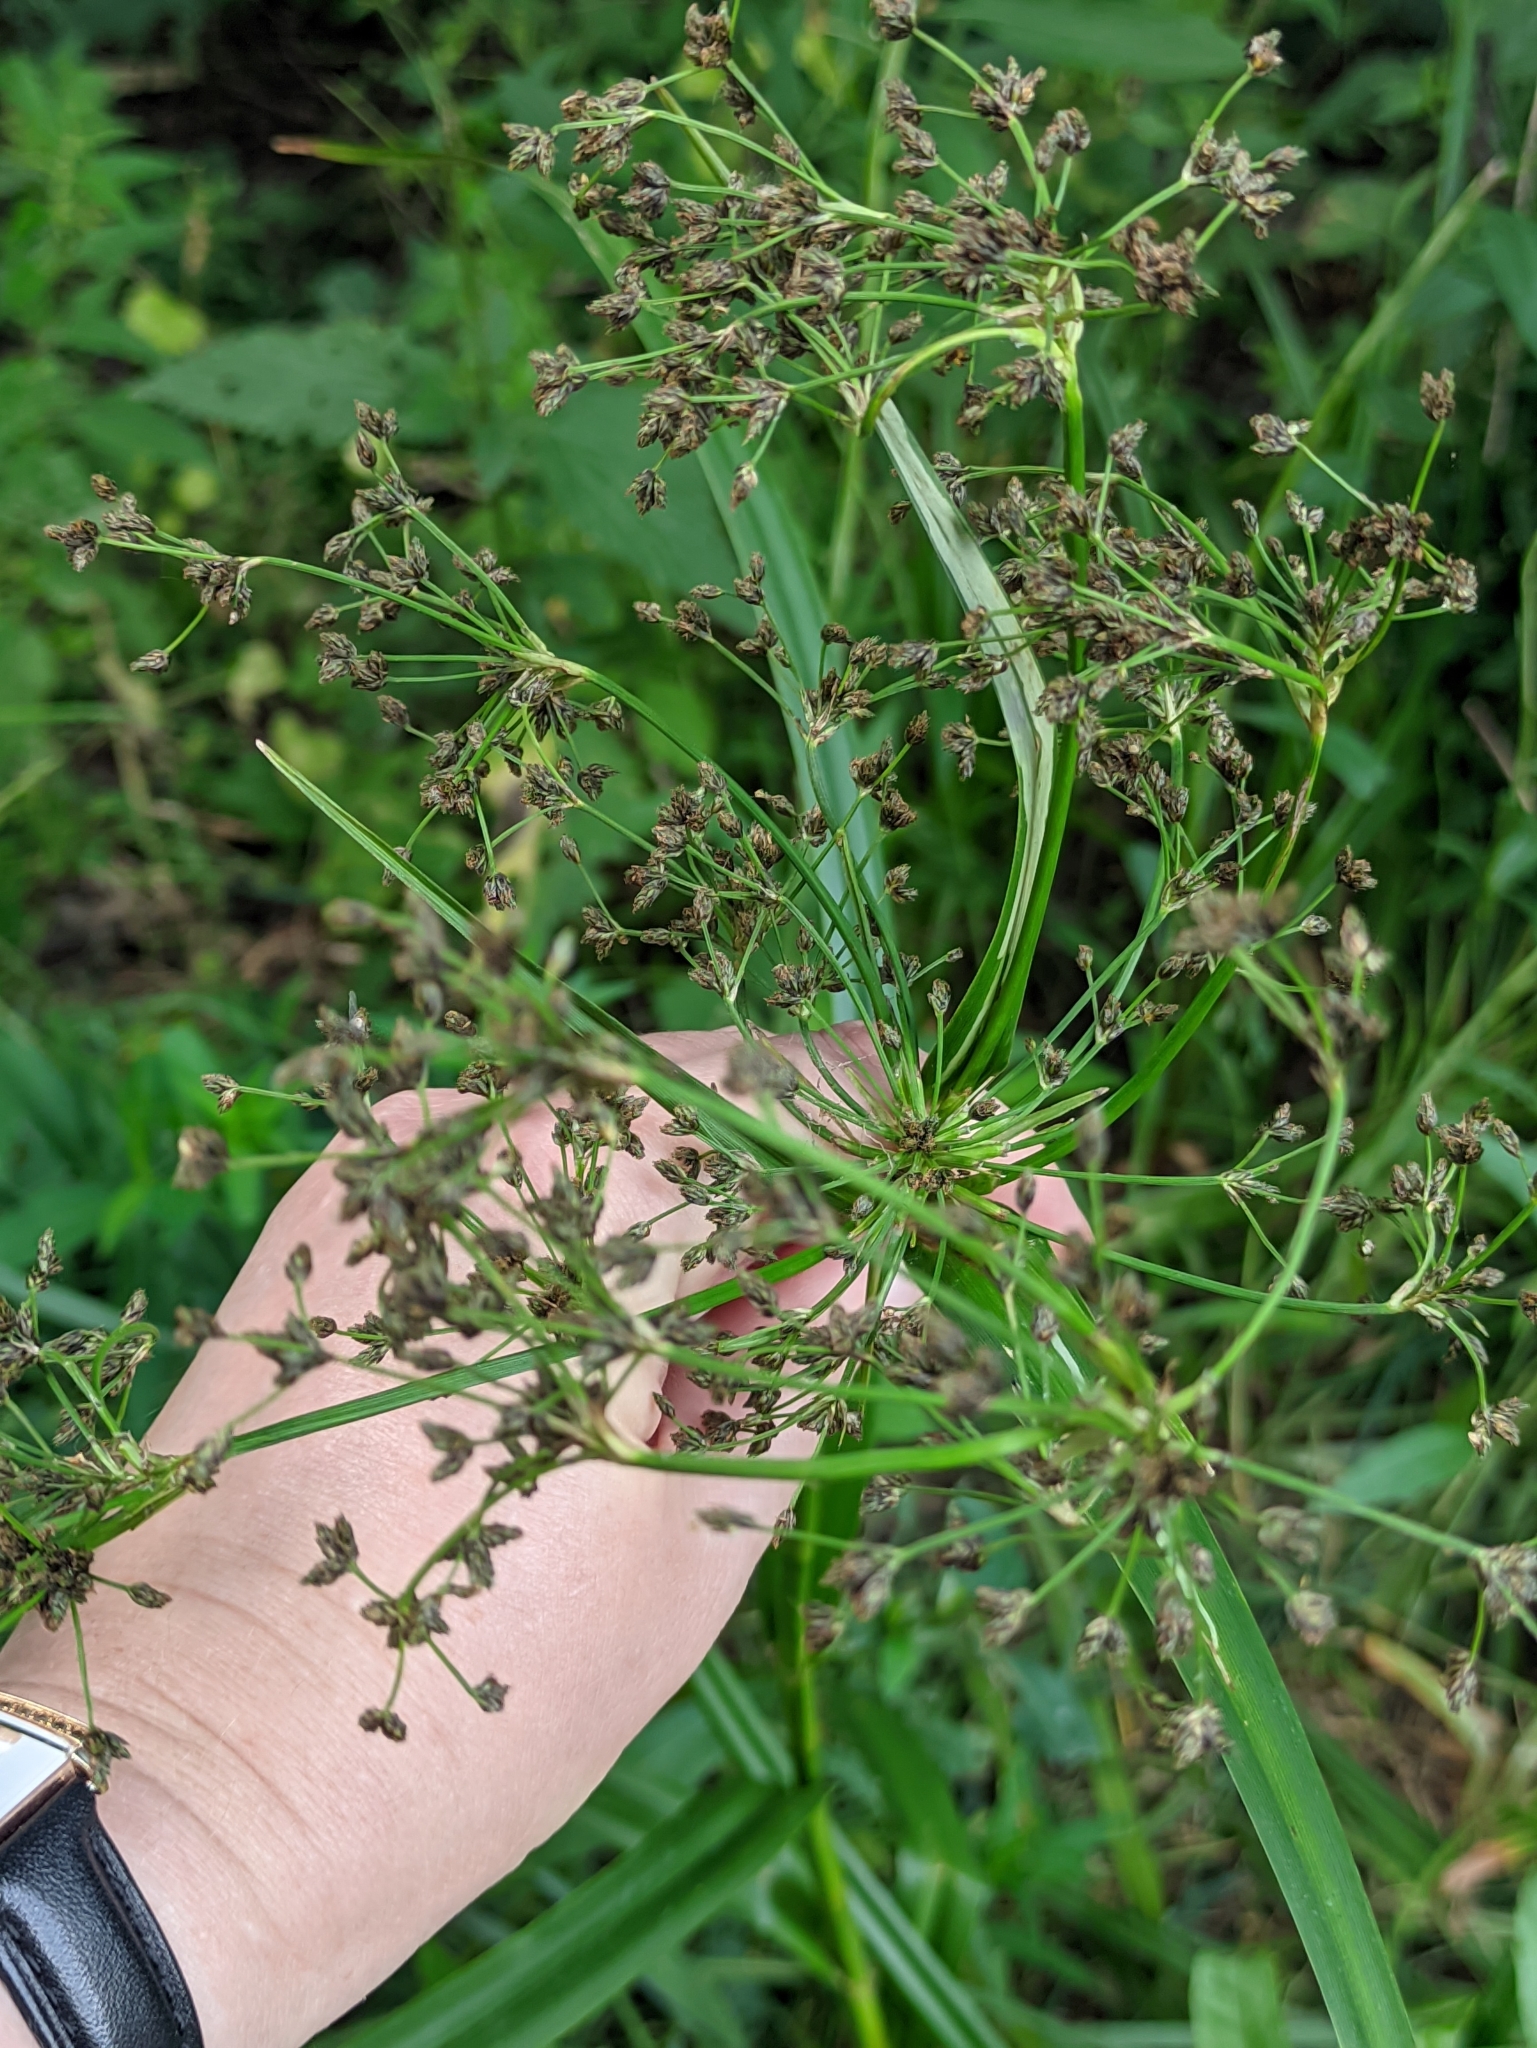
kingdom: Plantae
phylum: Tracheophyta
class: Liliopsida
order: Poales
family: Cyperaceae
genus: Scirpus
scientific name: Scirpus sylvaticus
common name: Wood club-rush
